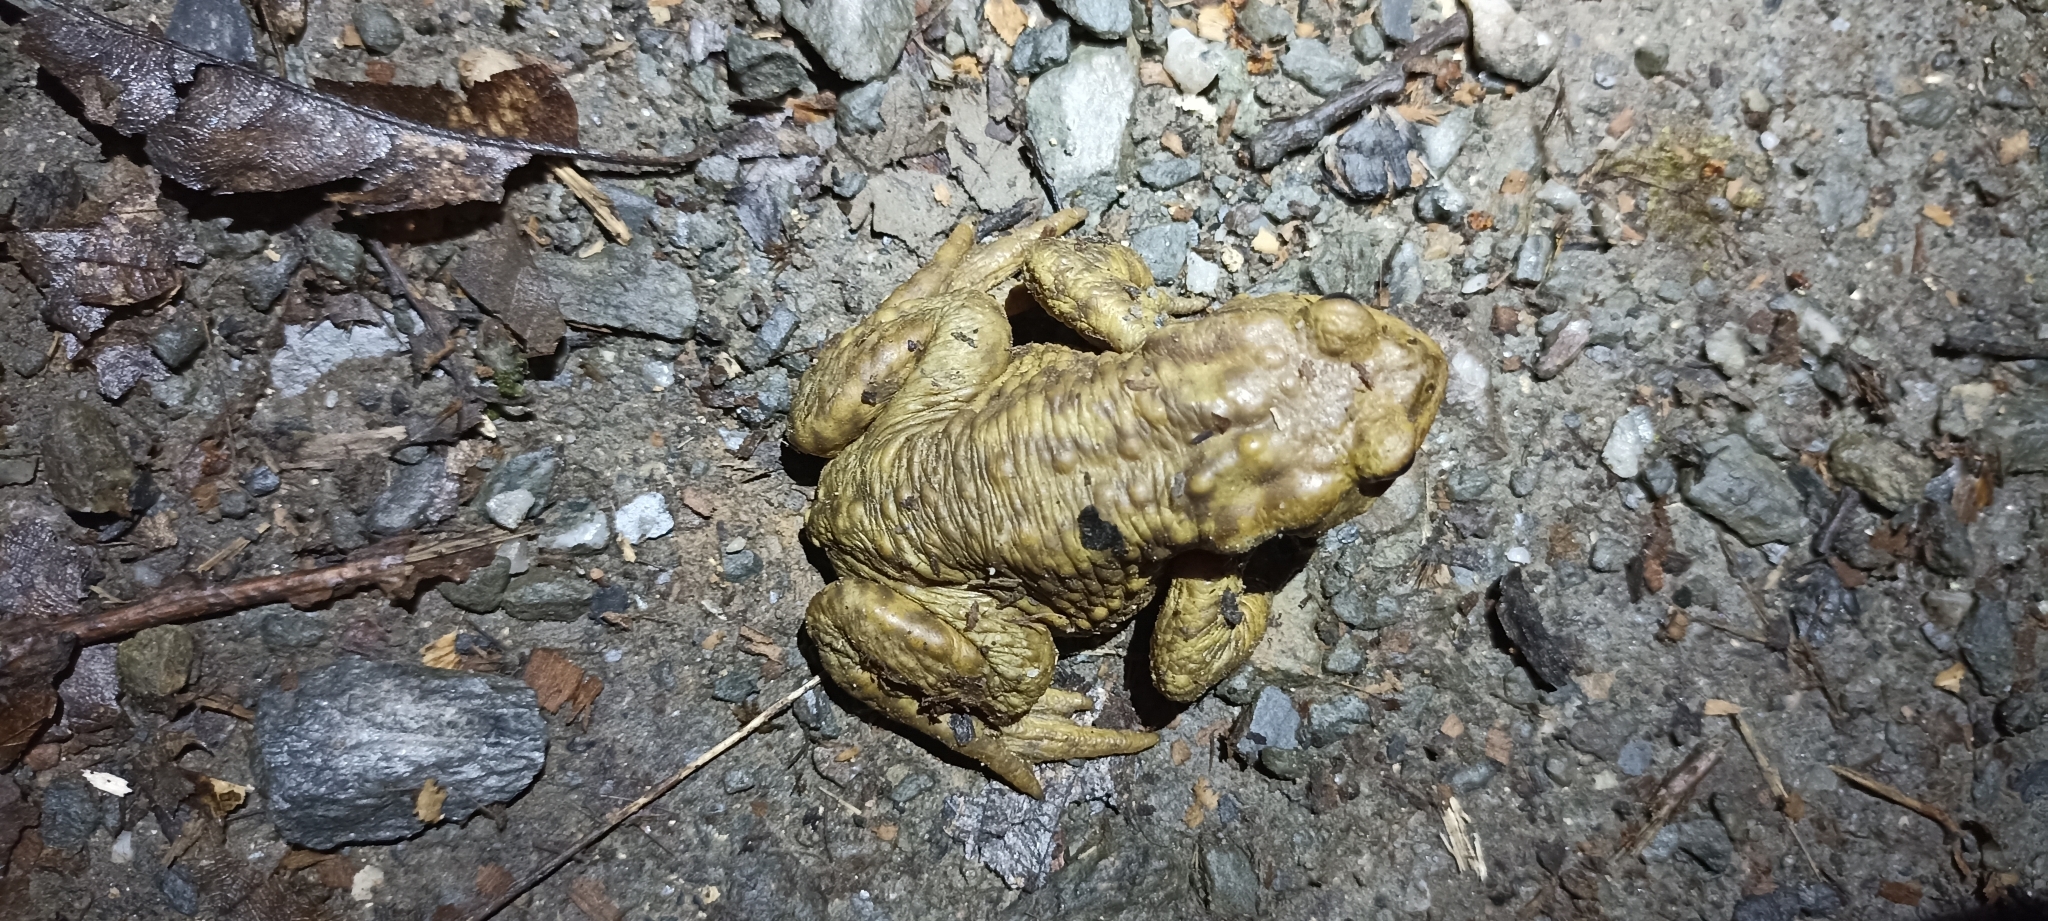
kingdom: Animalia
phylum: Chordata
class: Amphibia
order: Anura
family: Bufonidae
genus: Bufo
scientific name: Bufo spinosus
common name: Western common toad
